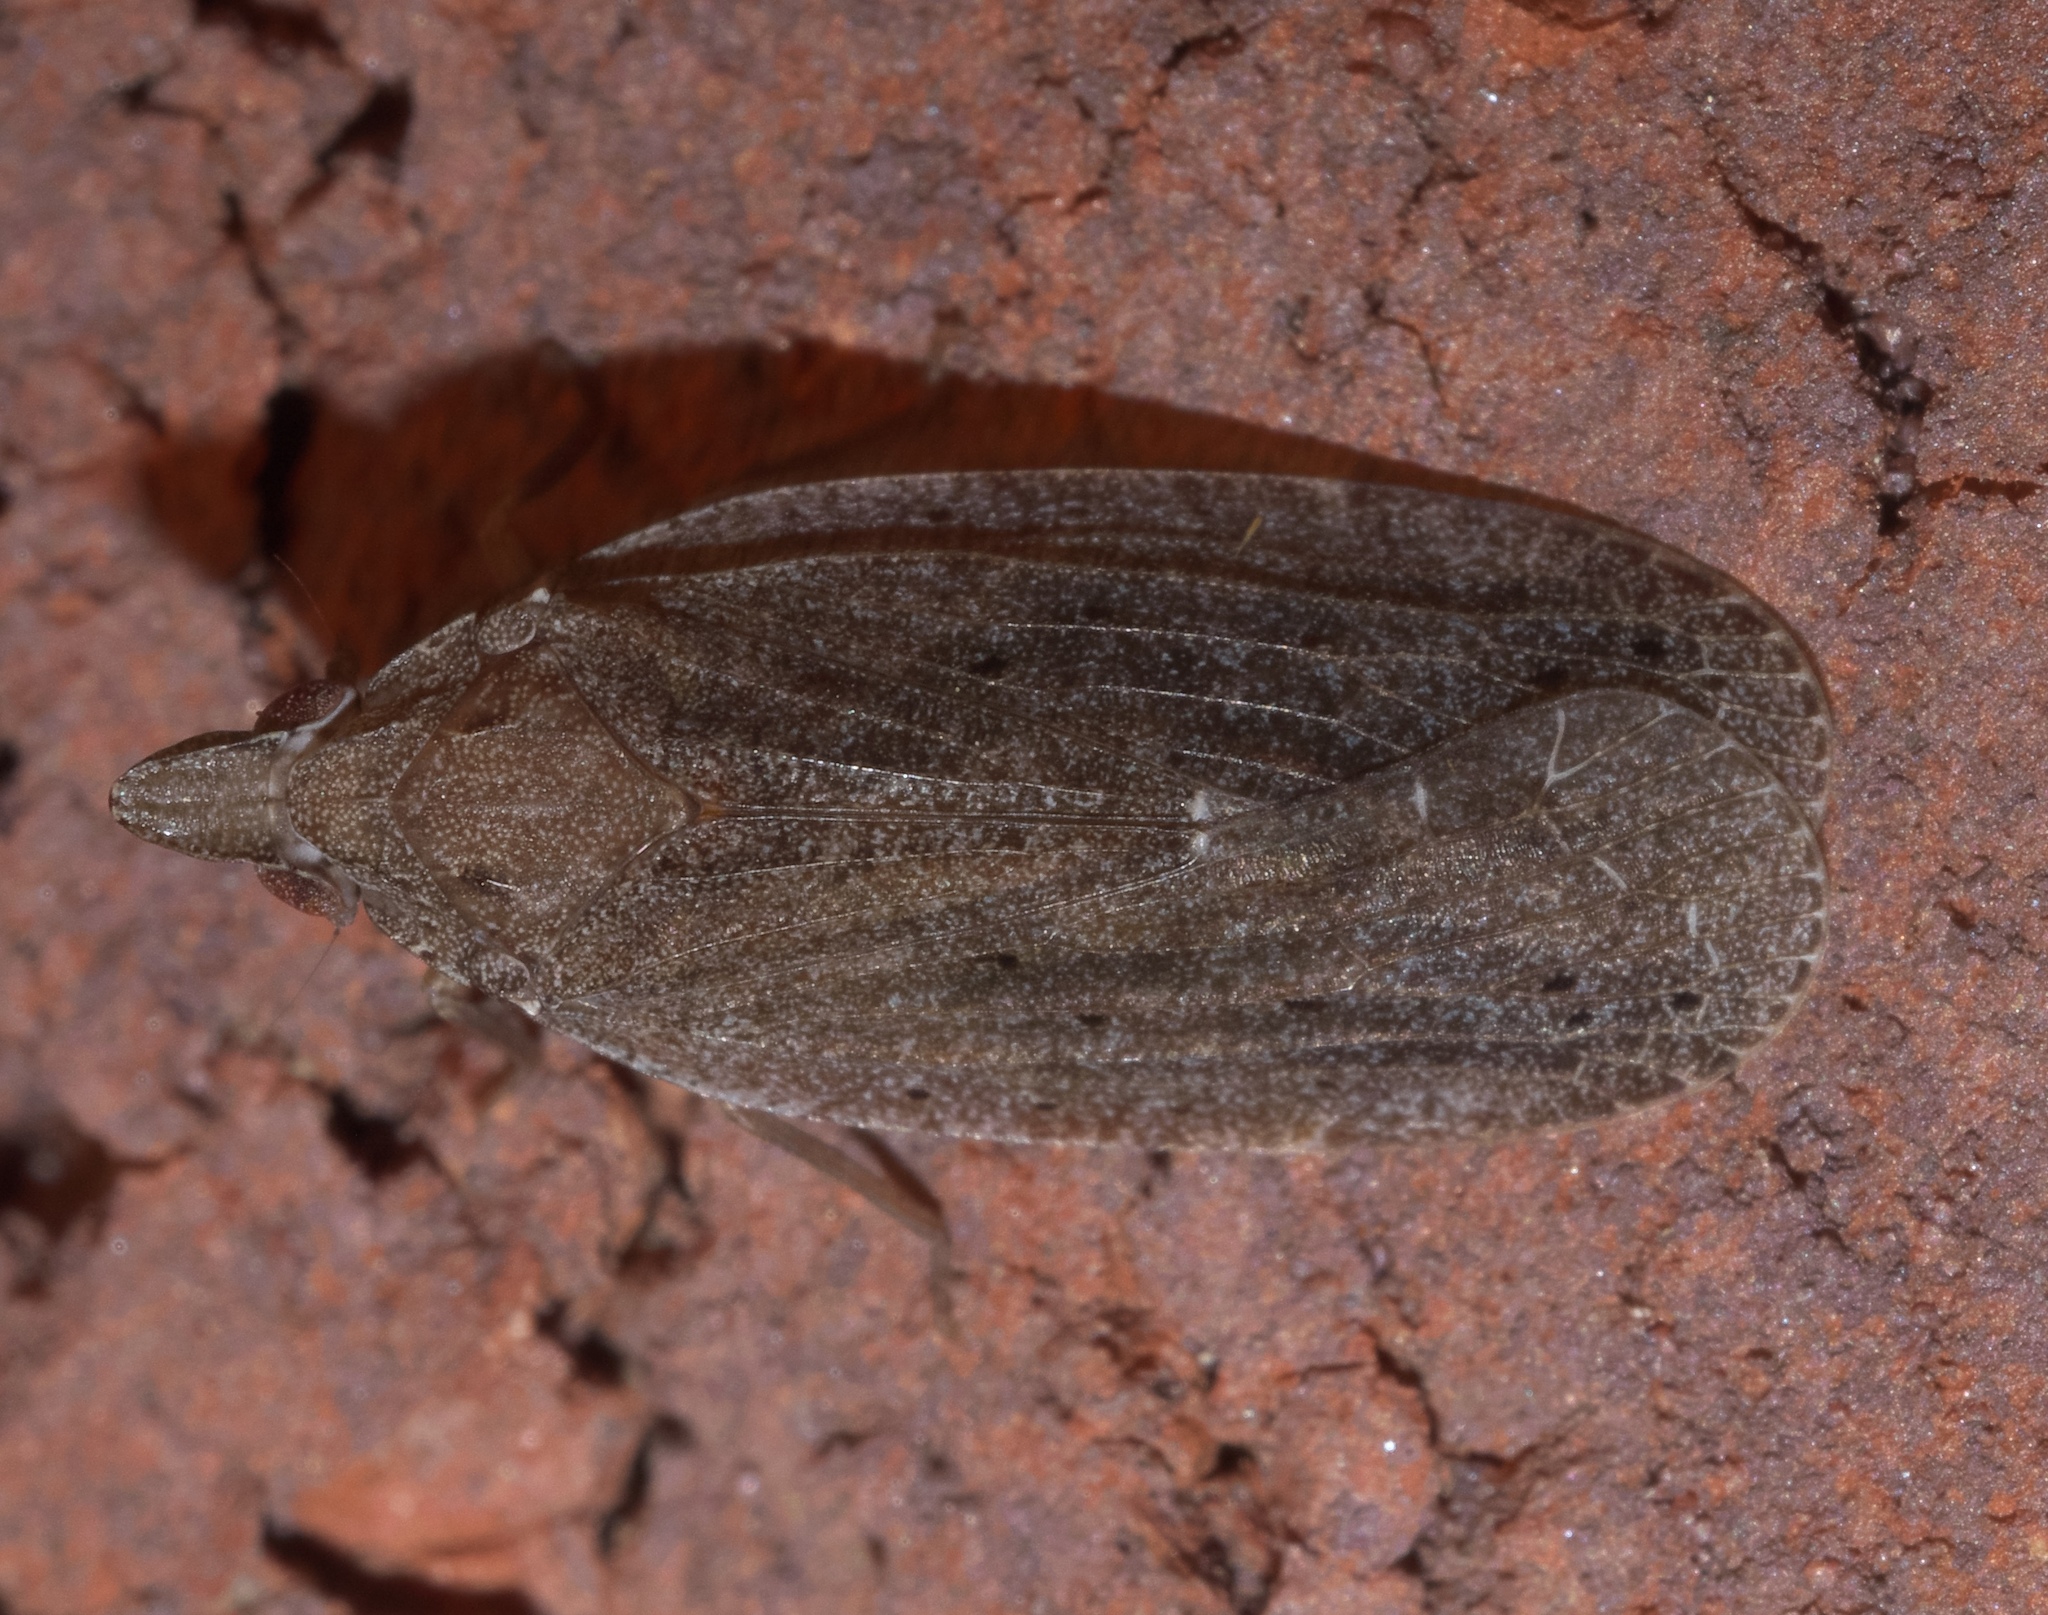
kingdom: Animalia
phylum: Arthropoda
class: Insecta
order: Hemiptera
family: Achilidae
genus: Cixidia
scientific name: Cixidia fusca
